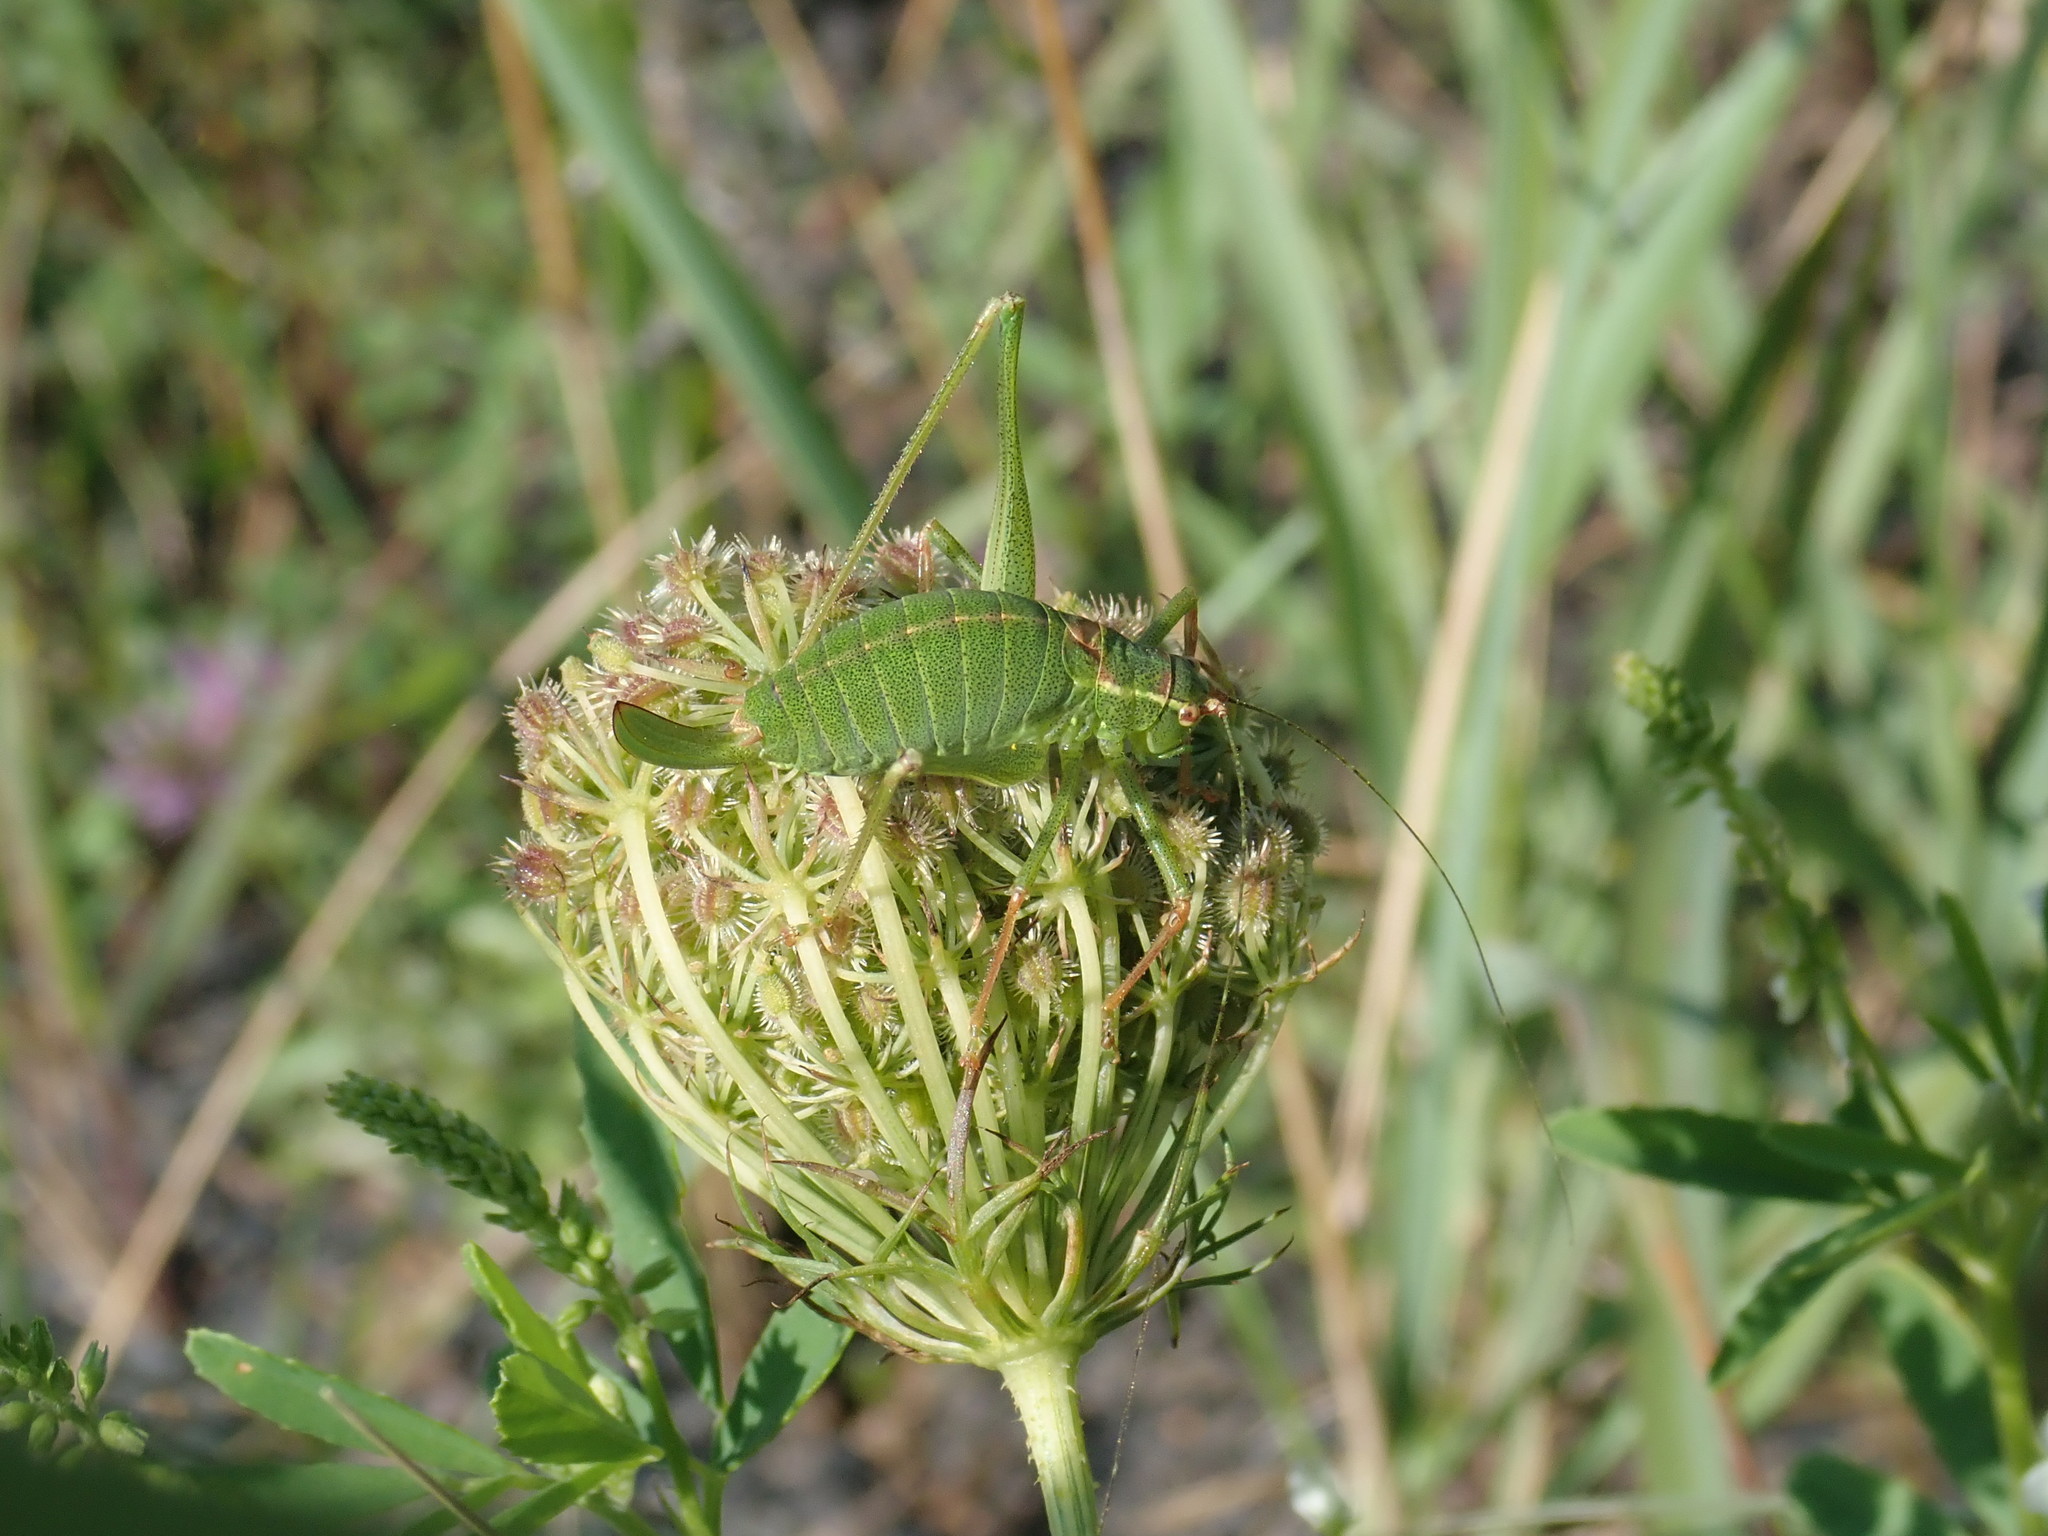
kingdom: Animalia
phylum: Arthropoda
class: Insecta
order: Orthoptera
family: Tettigoniidae
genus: Leptophyes
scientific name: Leptophyes punctatissima
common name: Speckled bush-cricket
